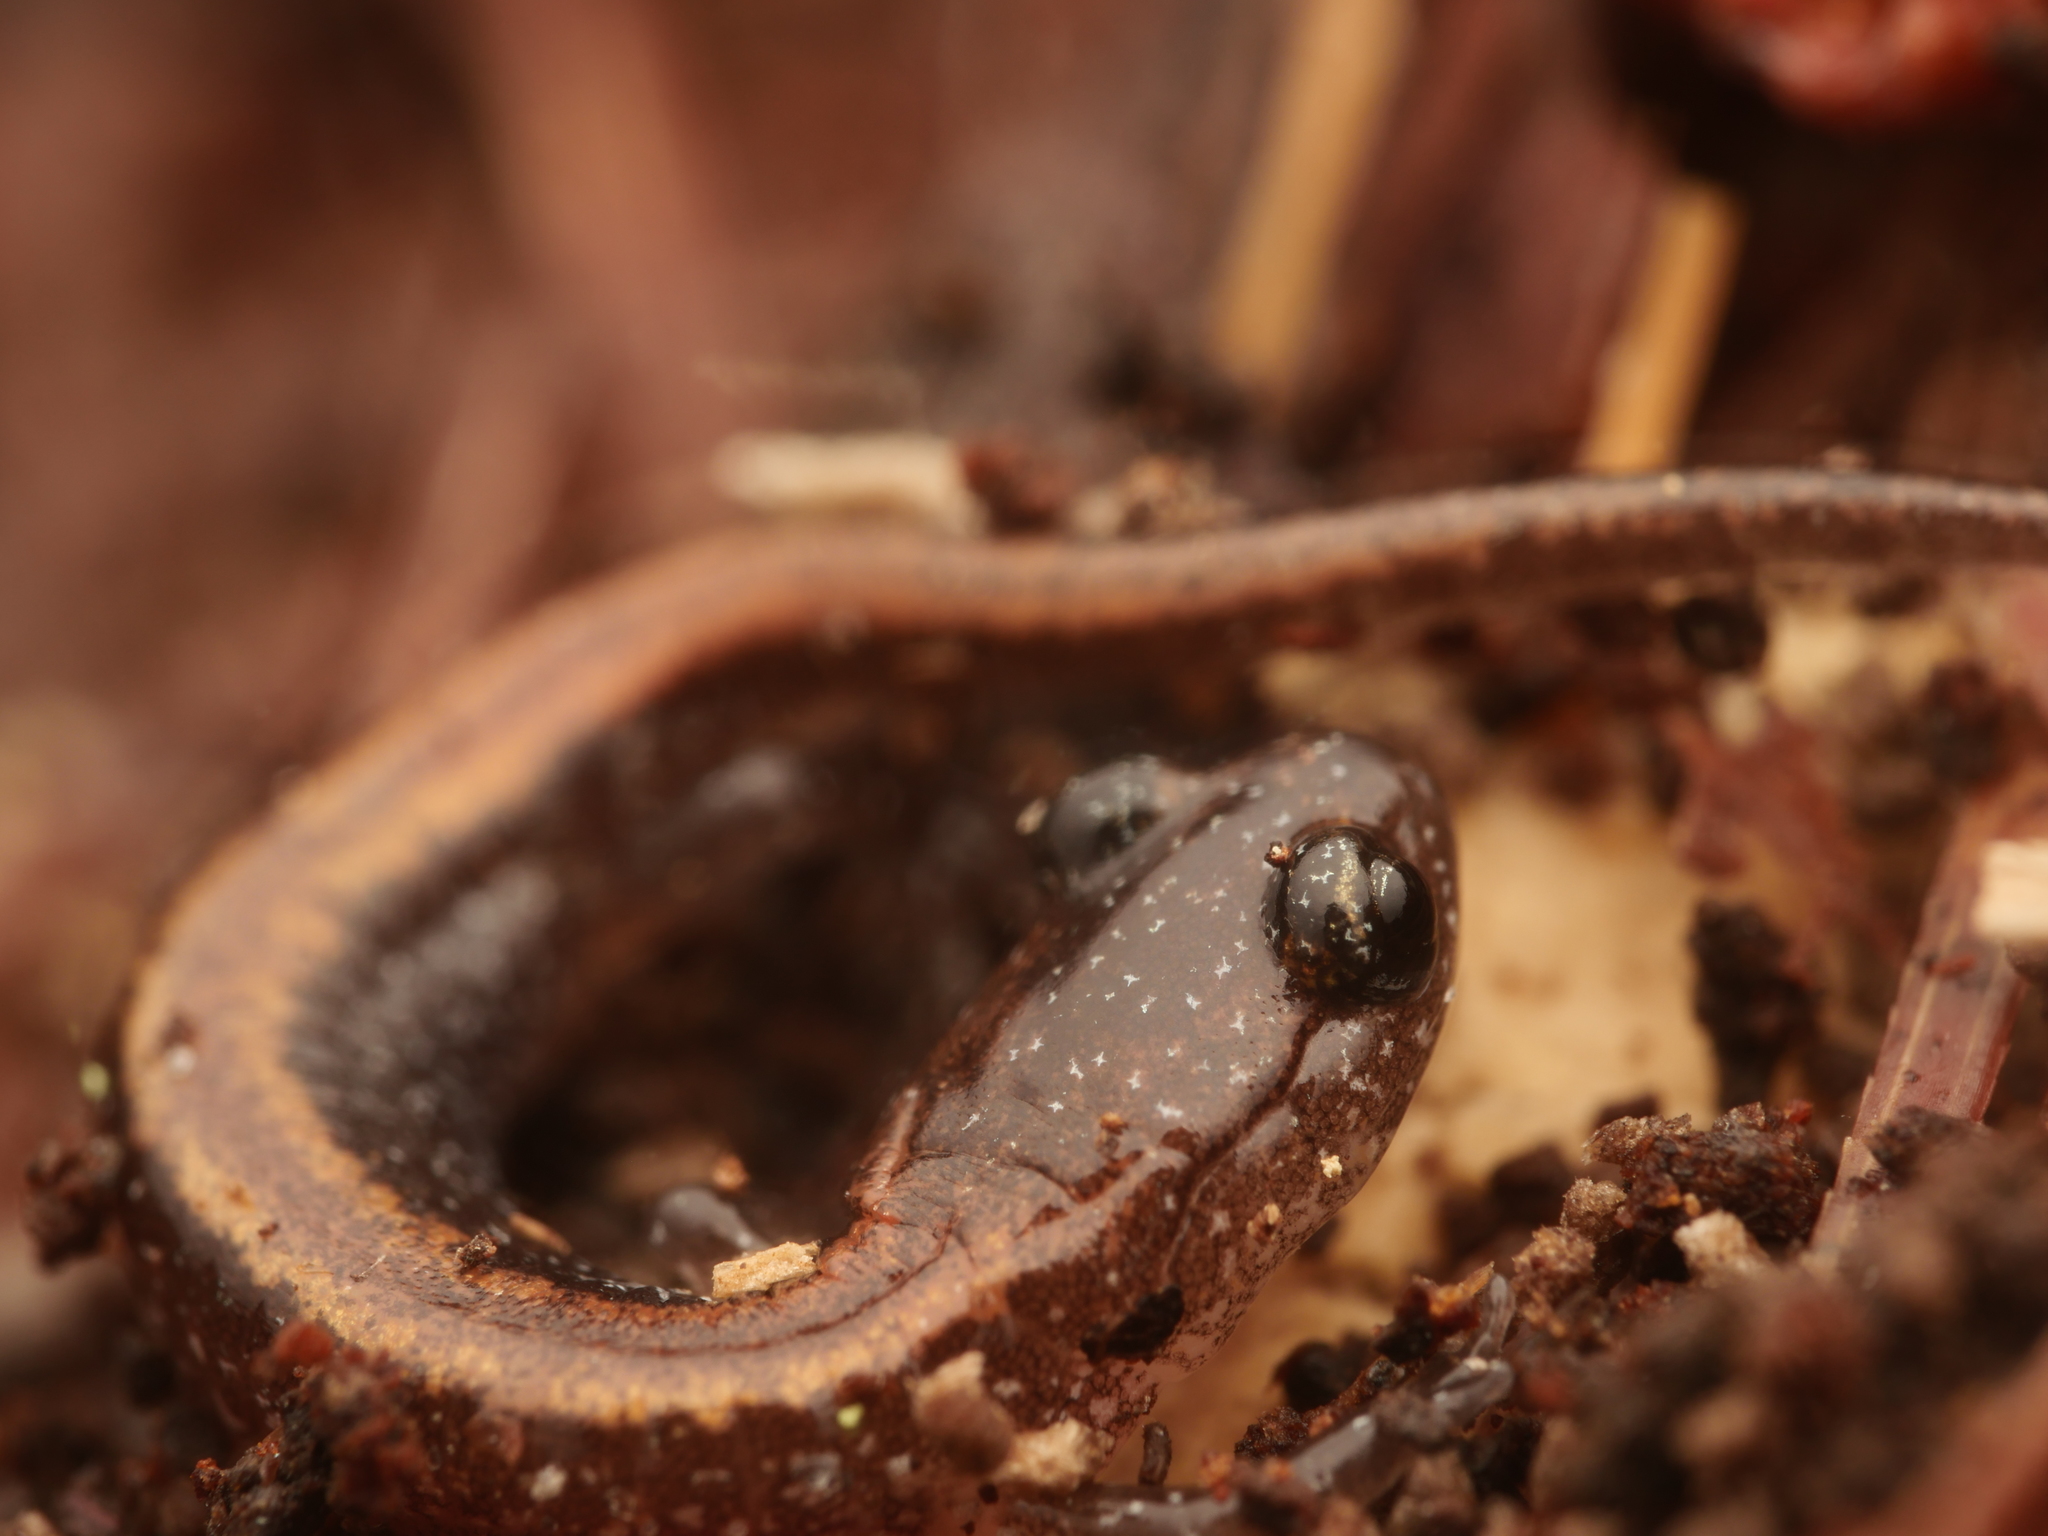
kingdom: Animalia
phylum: Chordata
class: Amphibia
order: Caudata
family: Plethodontidae
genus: Plethodon
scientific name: Plethodon cinereus
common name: Redback salamander
